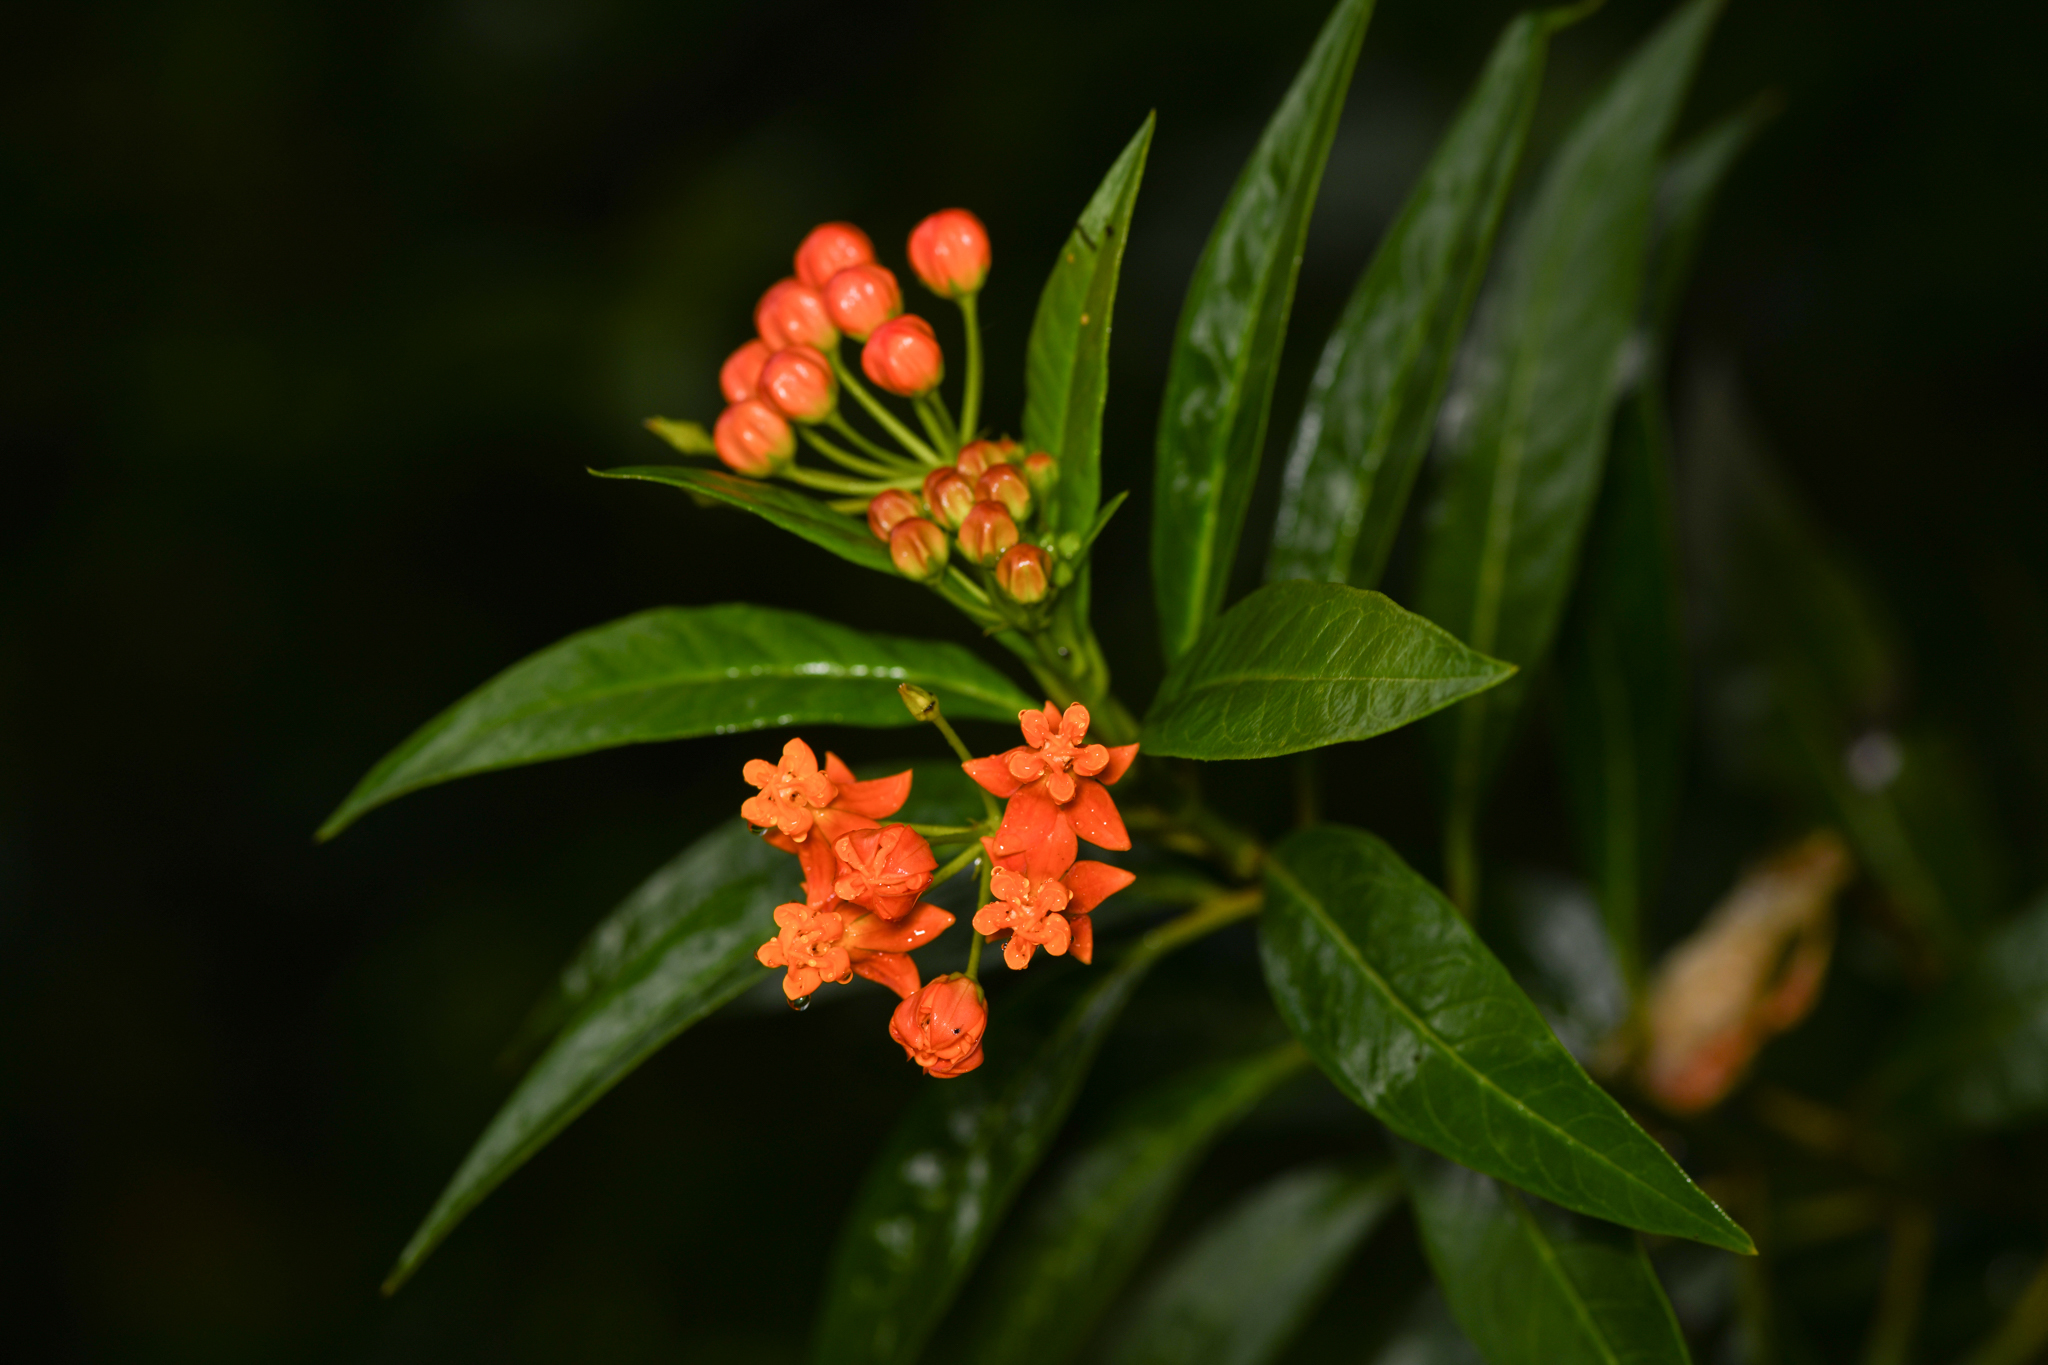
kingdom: Plantae
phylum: Tracheophyta
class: Magnoliopsida
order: Gentianales
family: Apocynaceae
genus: Asclepias
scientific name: Asclepias curassavica
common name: Bloodflower
